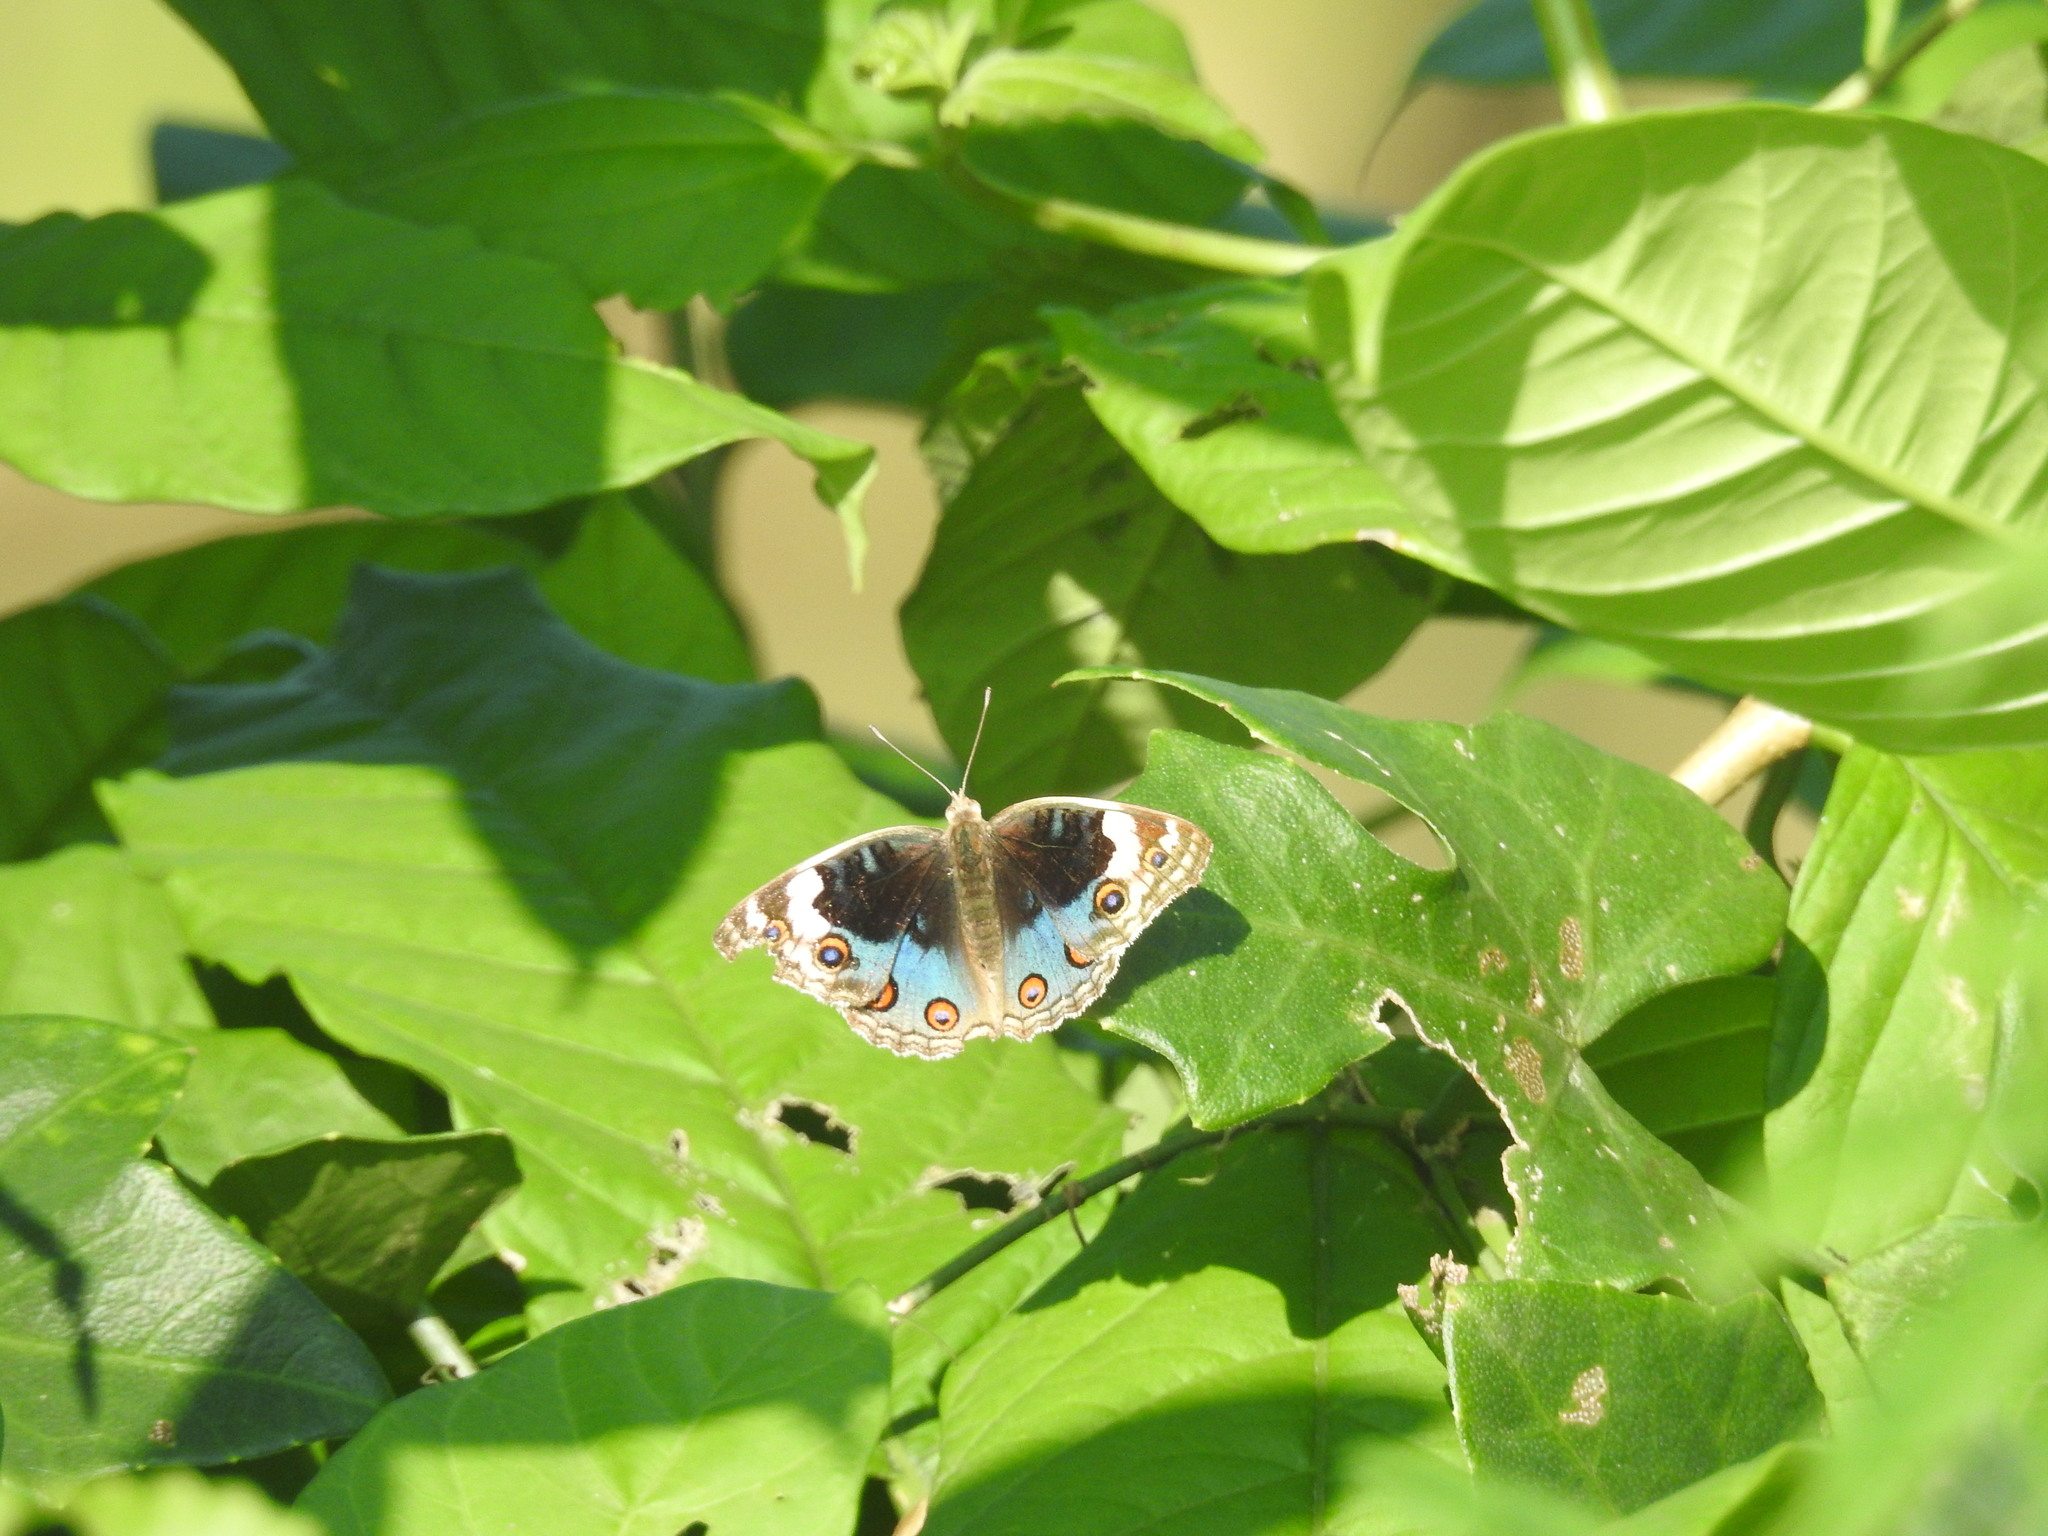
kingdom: Animalia
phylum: Arthropoda
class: Insecta
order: Lepidoptera
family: Nymphalidae
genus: Junonia
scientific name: Junonia orithya
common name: Blue pansy
